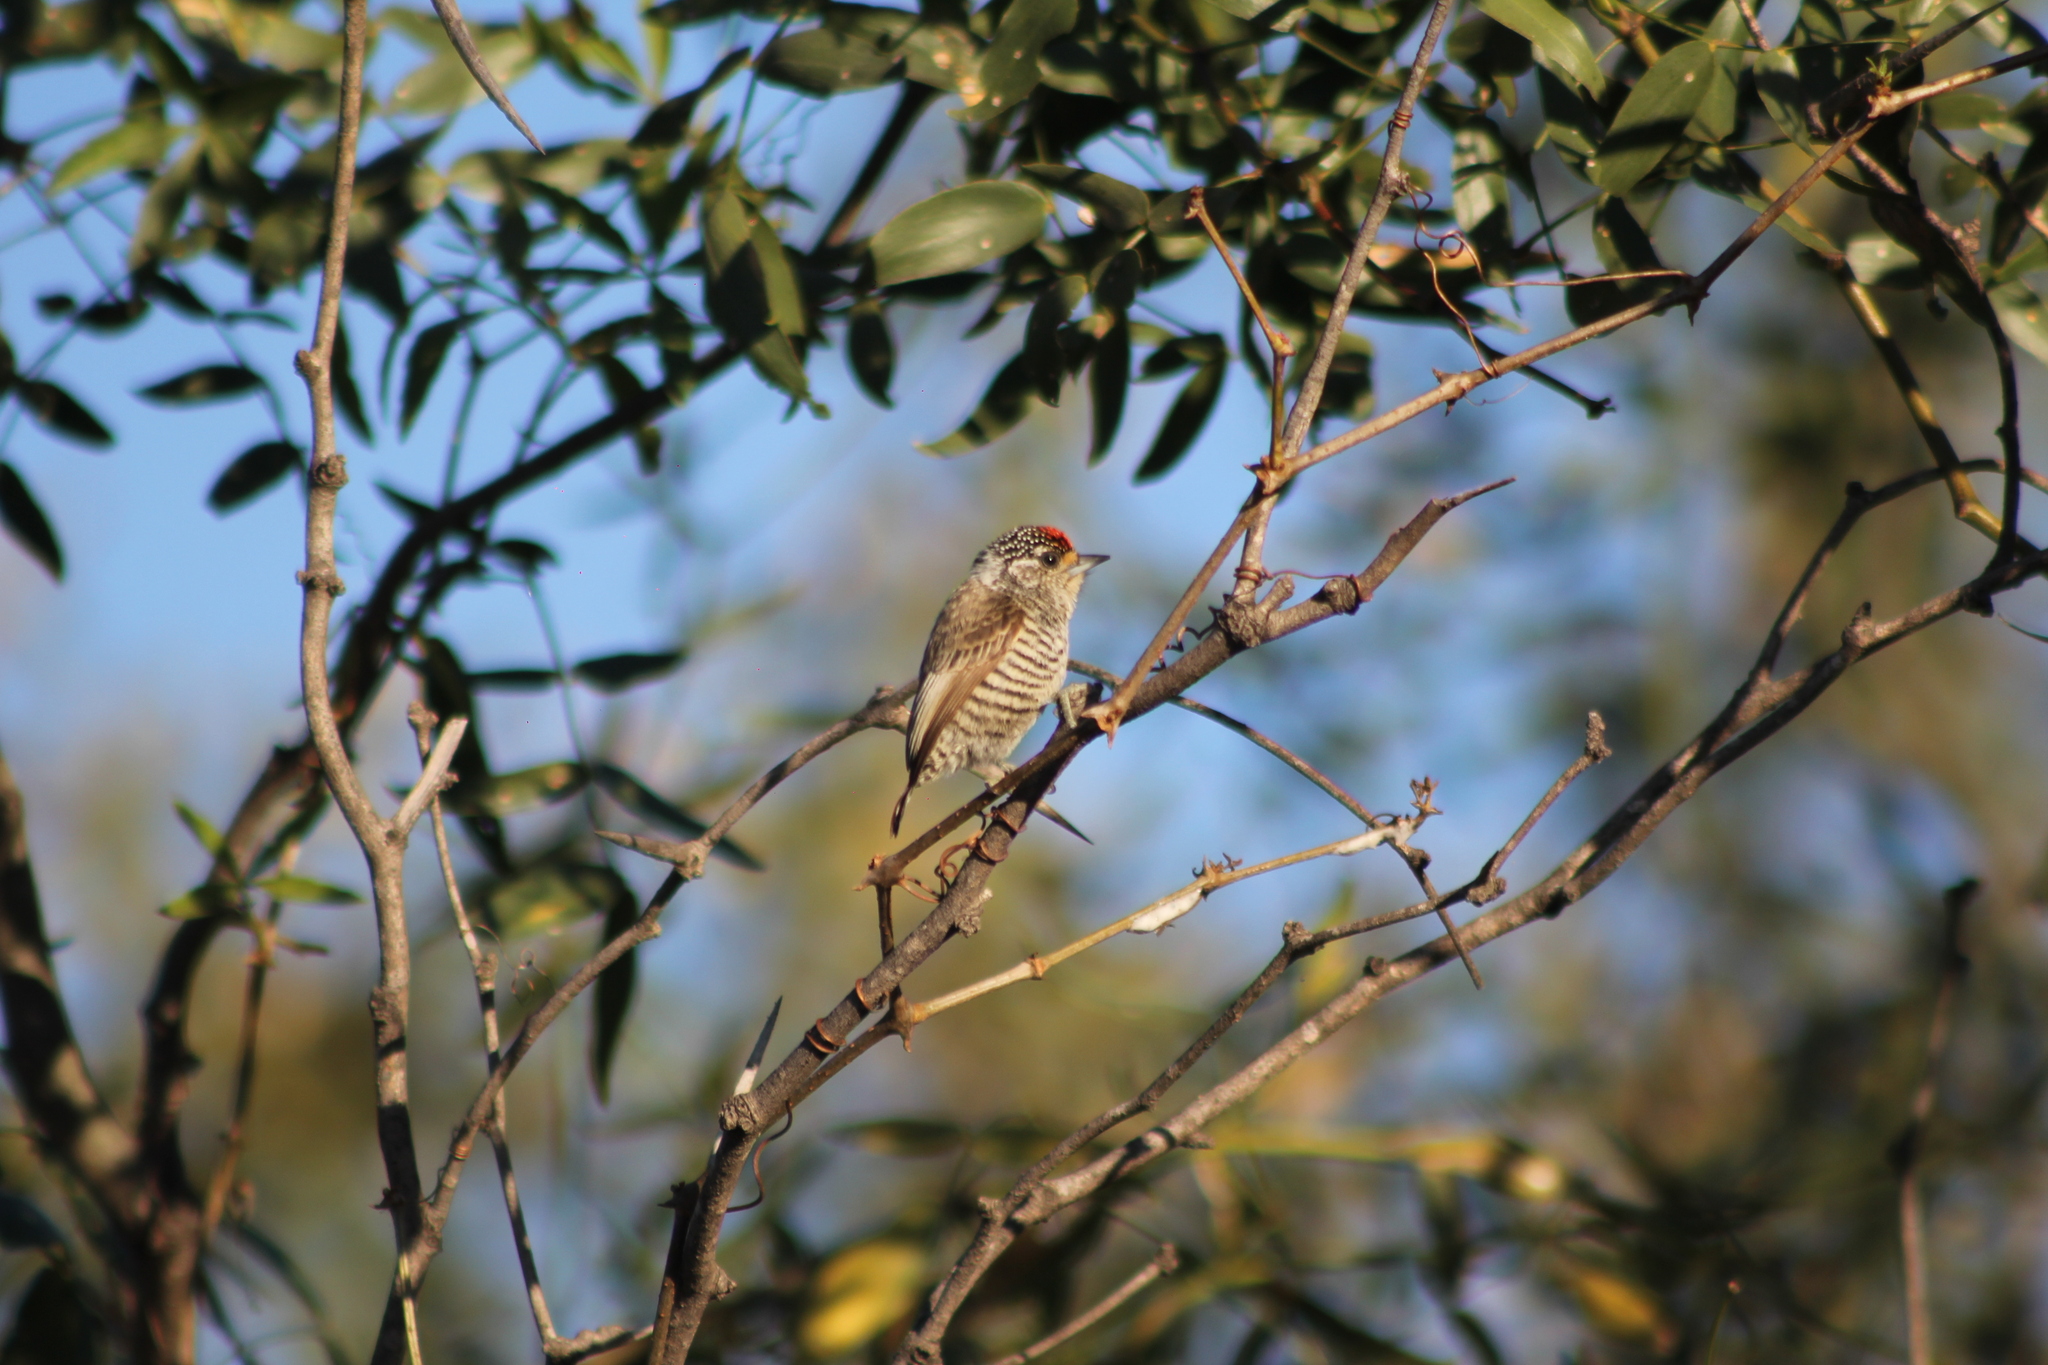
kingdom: Animalia
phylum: Chordata
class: Aves
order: Piciformes
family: Picidae
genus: Picumnus
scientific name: Picumnus cirratus
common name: White-barred piculet
